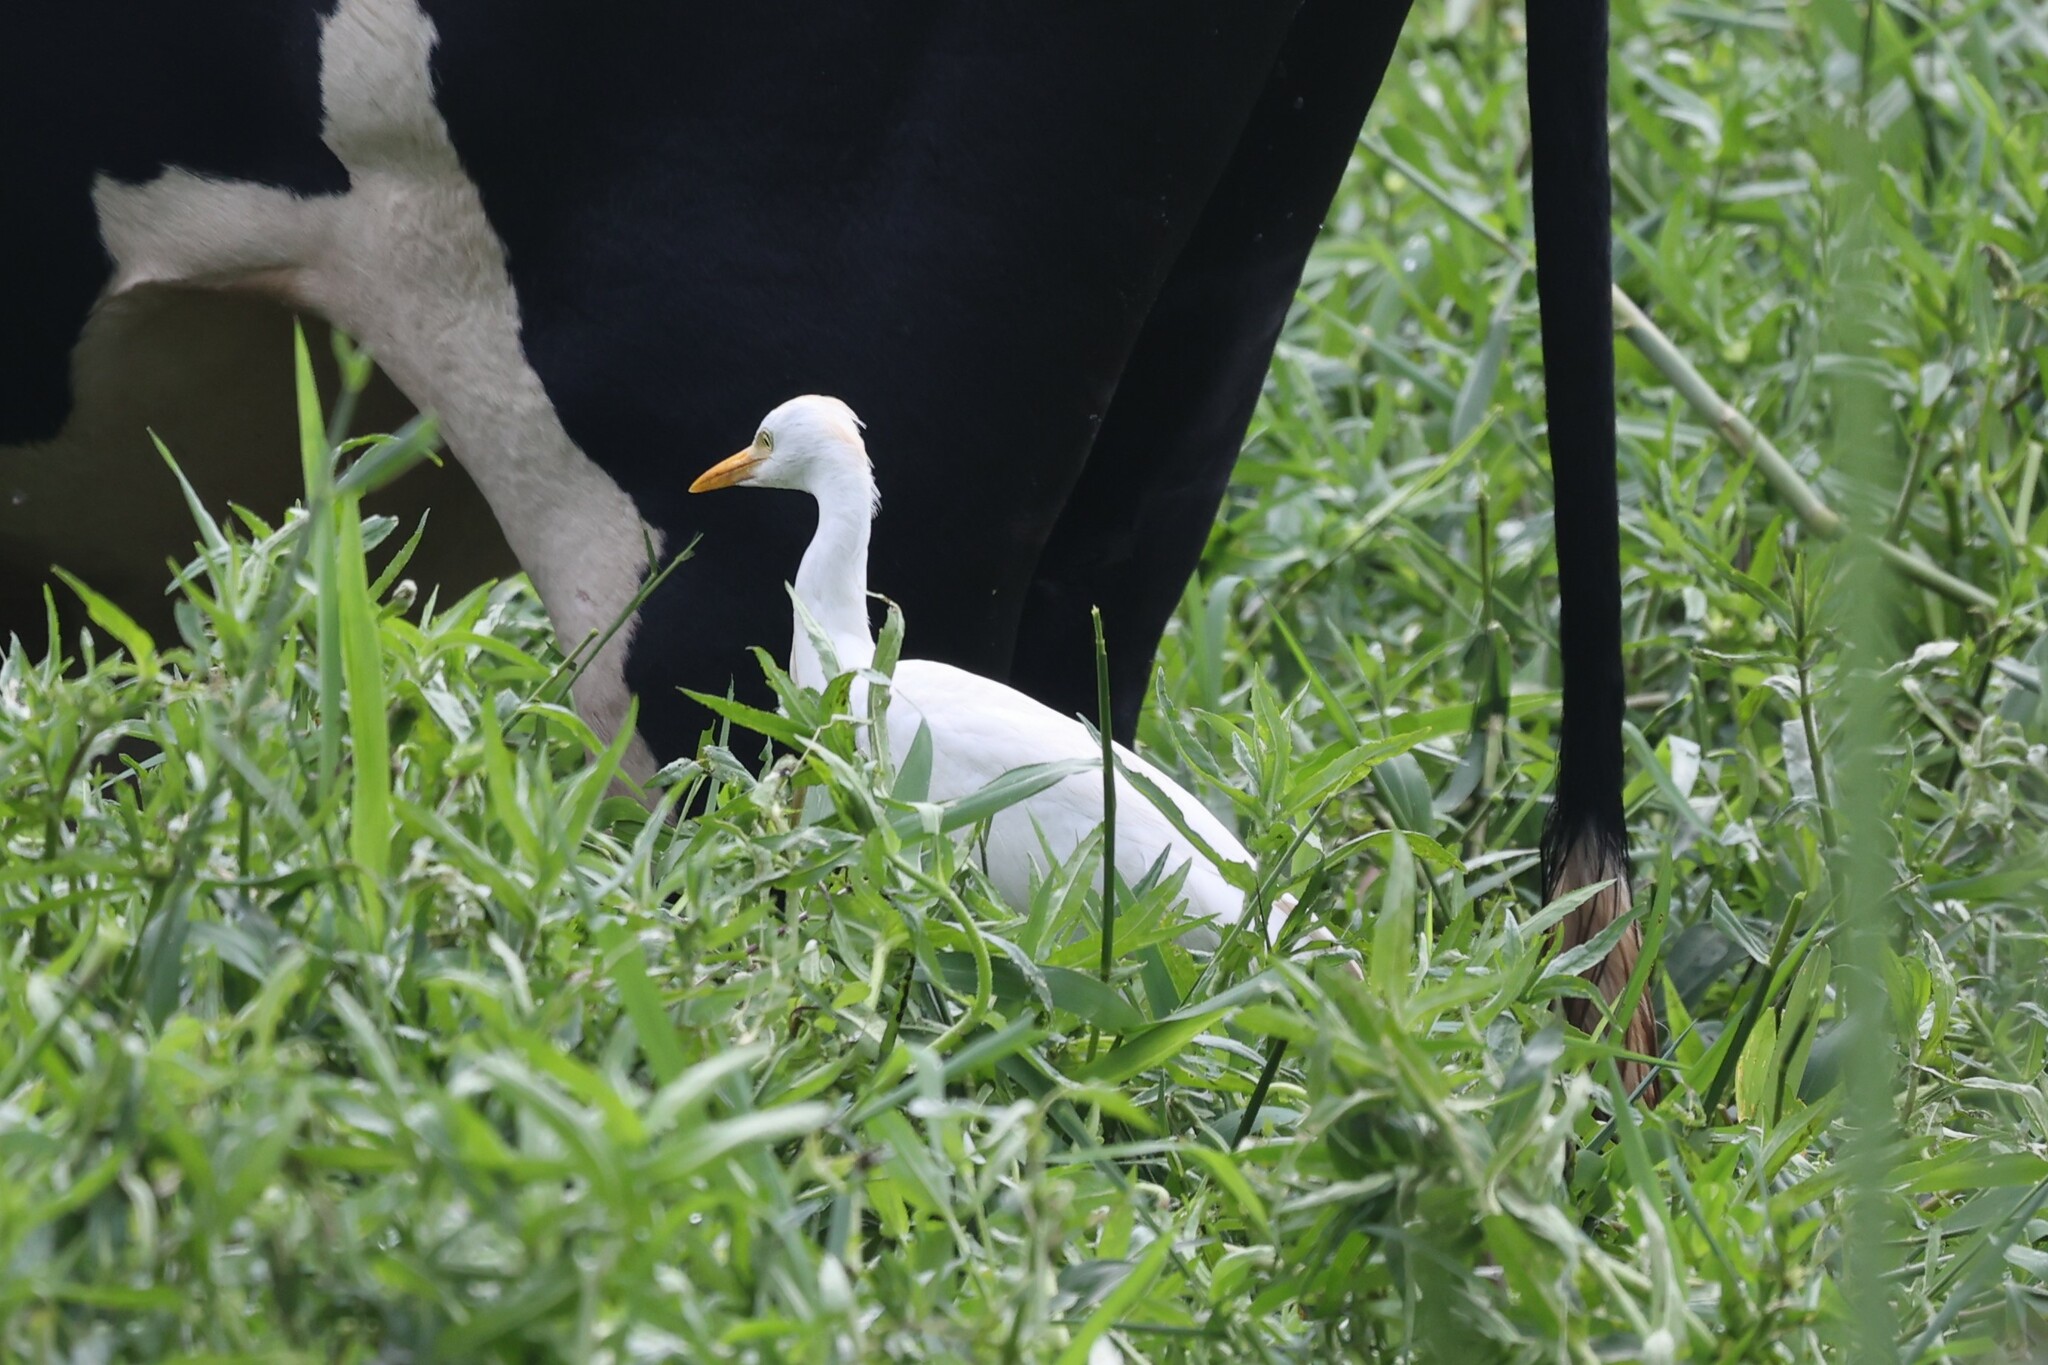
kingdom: Animalia
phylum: Chordata
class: Aves
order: Pelecaniformes
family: Ardeidae
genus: Bubulcus
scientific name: Bubulcus ibis
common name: Cattle egret
